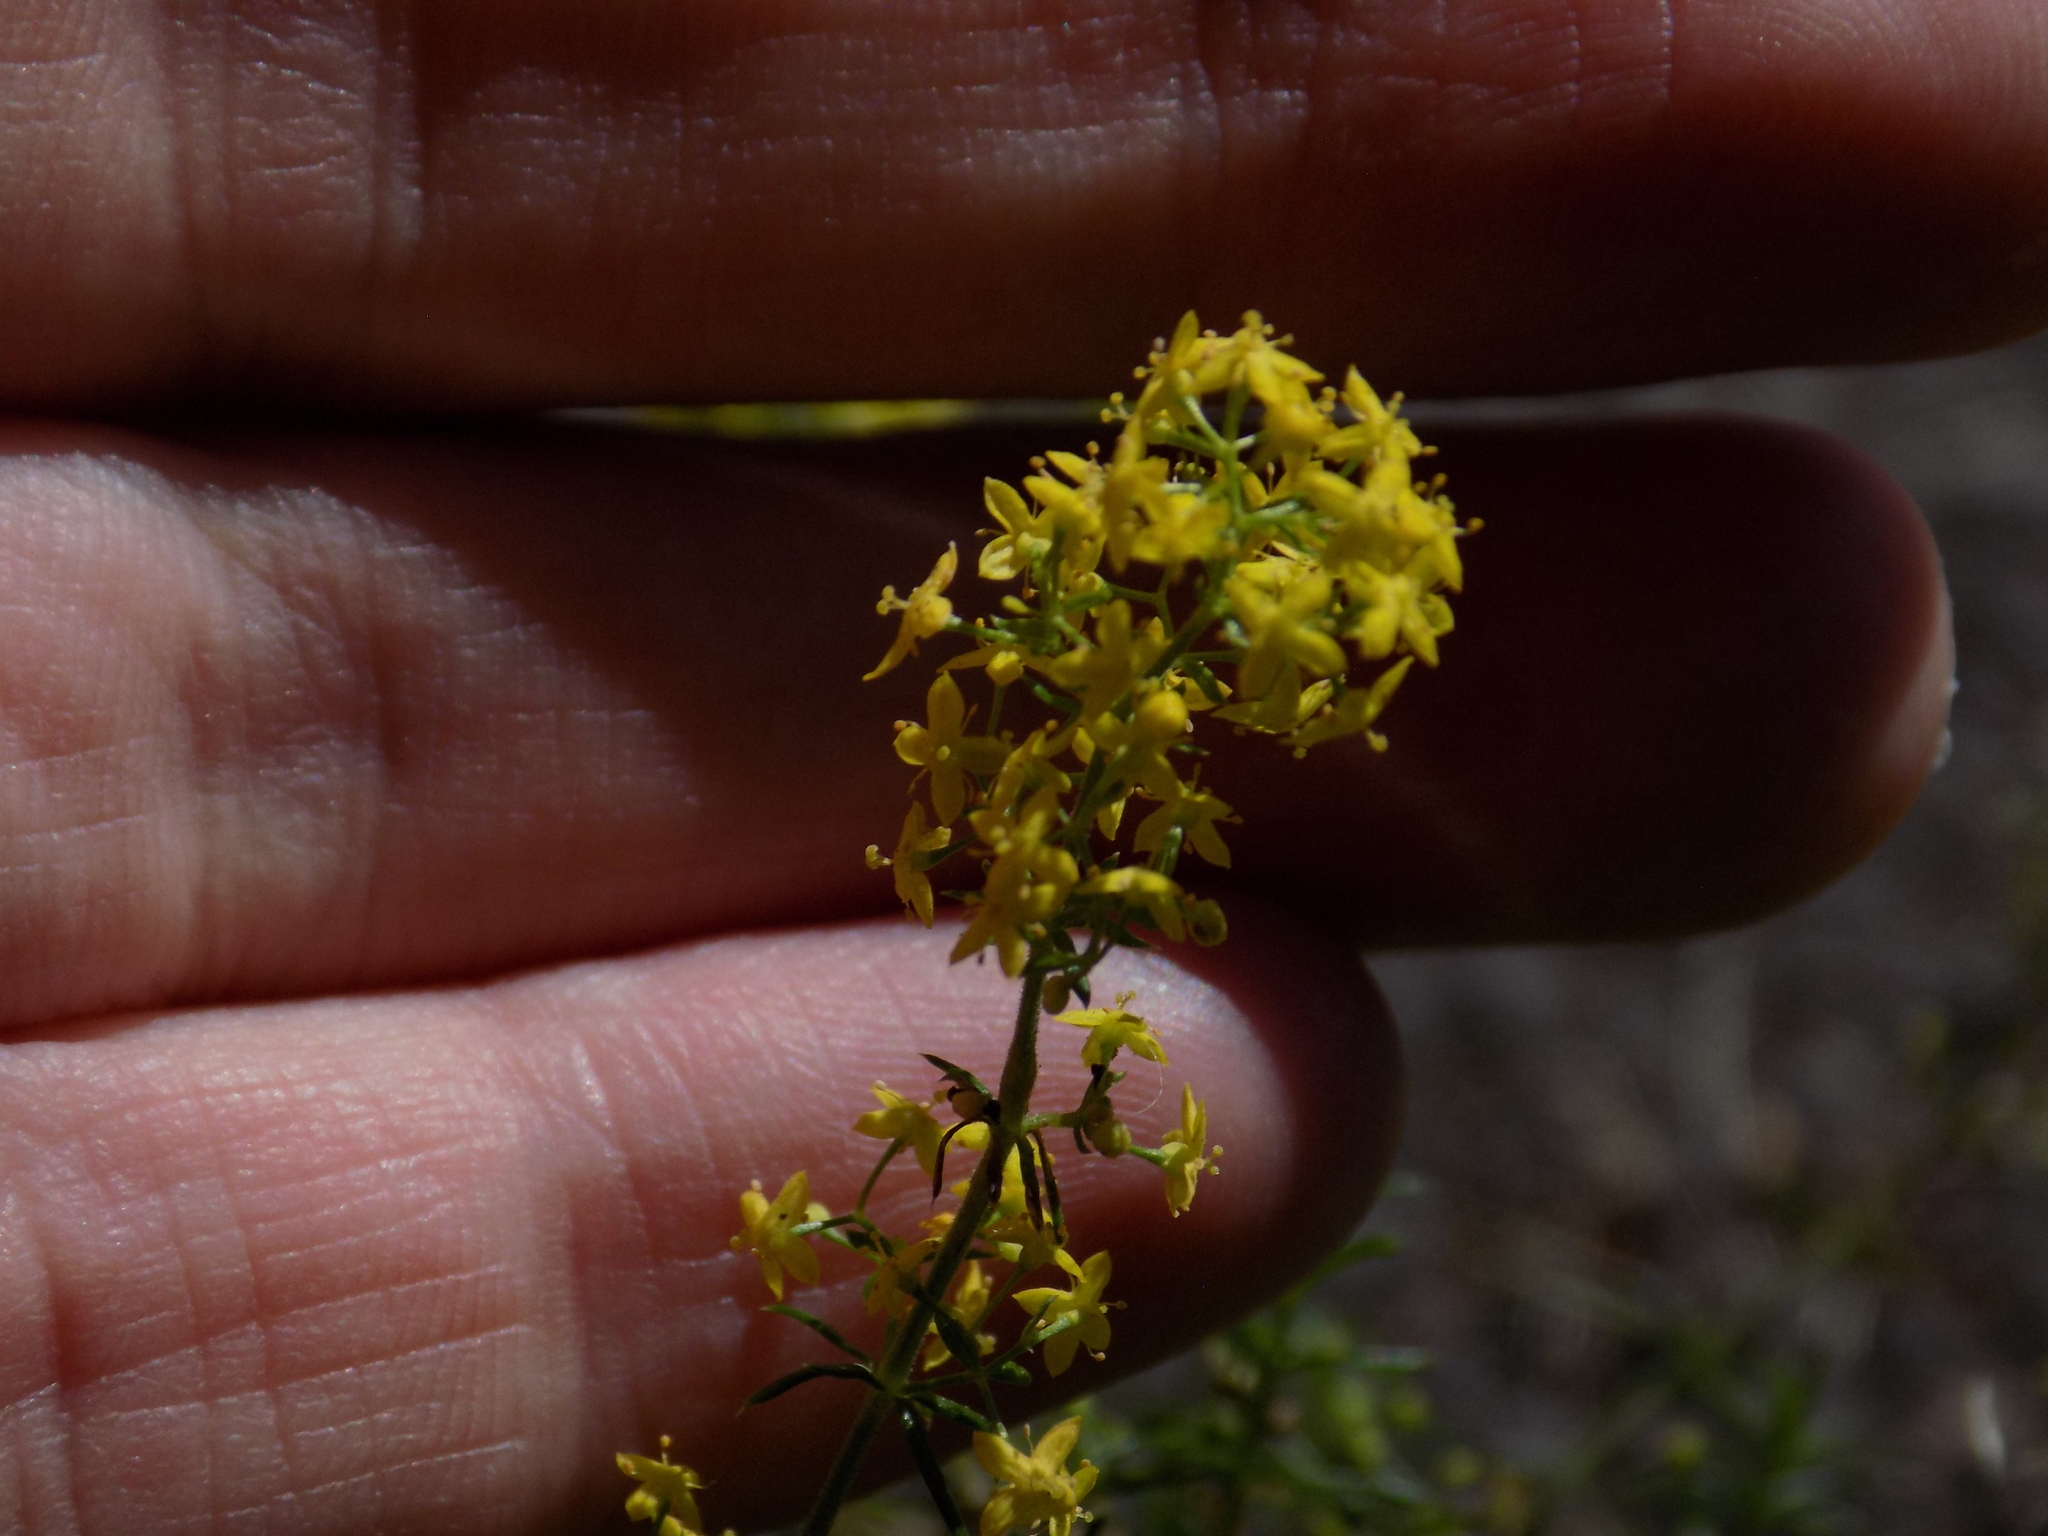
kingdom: Plantae
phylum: Tracheophyta
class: Magnoliopsida
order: Gentianales
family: Rubiaceae
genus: Galium
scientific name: Galium verum
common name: Lady's bedstraw
